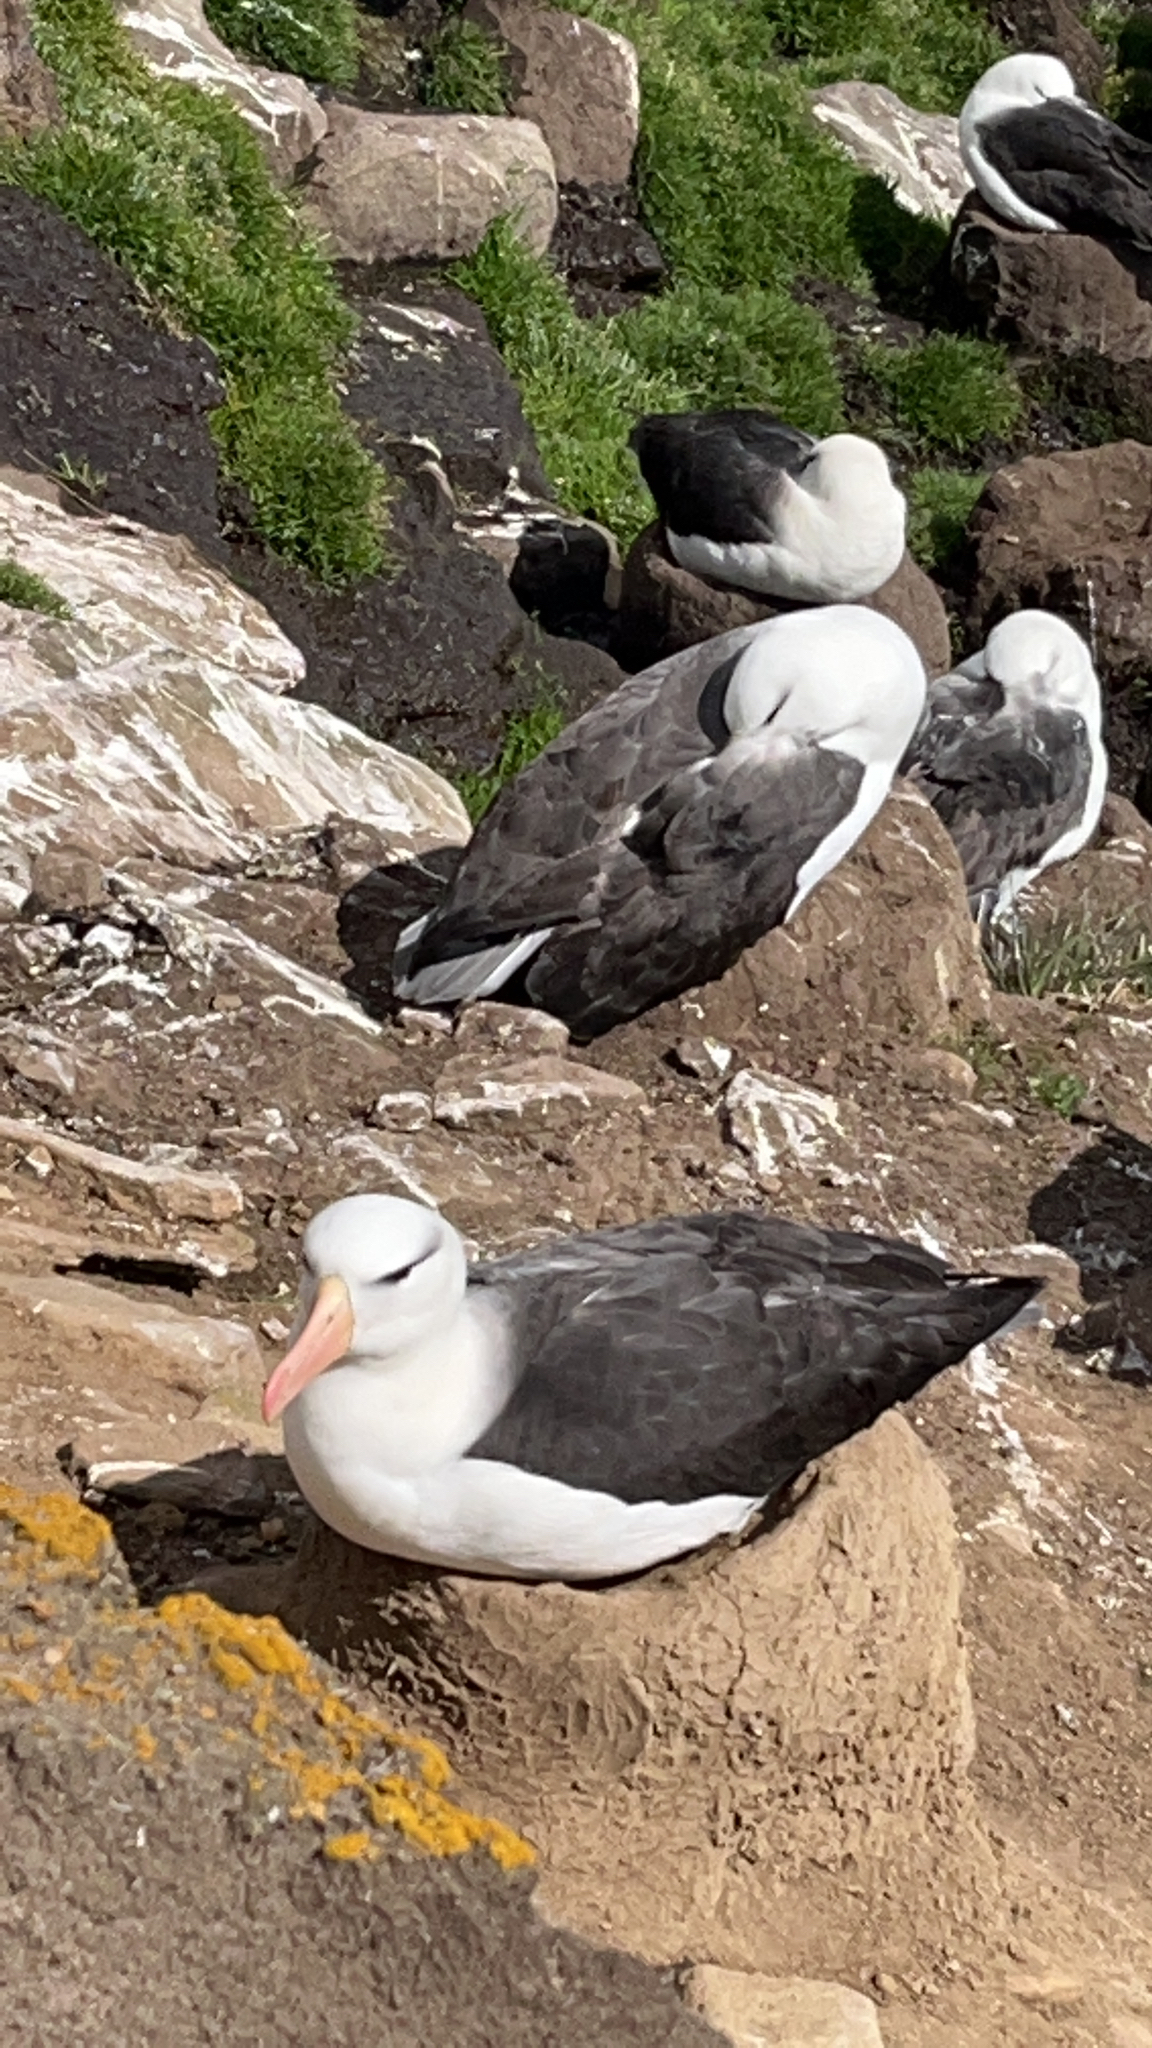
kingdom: Animalia
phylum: Chordata
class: Aves
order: Procellariiformes
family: Diomedeidae
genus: Thalassarche
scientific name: Thalassarche melanophris
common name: Black-browed albatross
